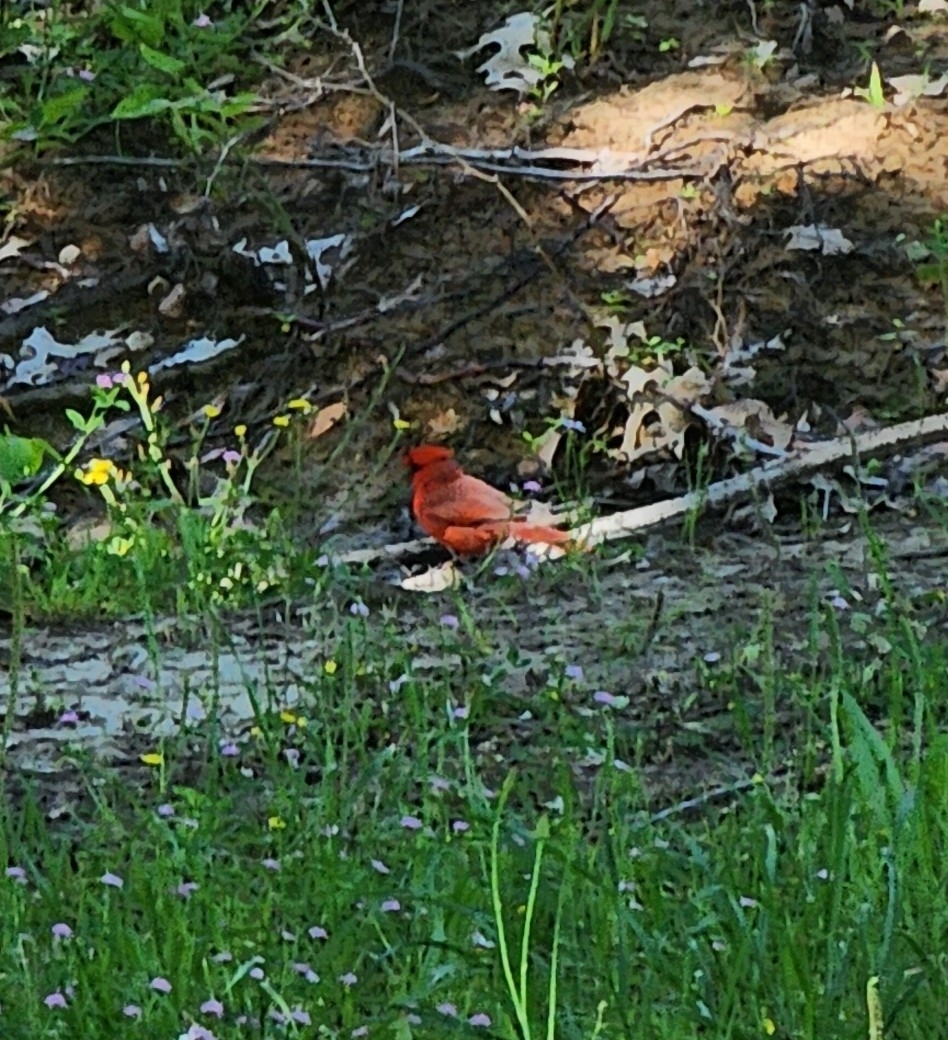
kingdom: Animalia
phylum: Chordata
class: Aves
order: Passeriformes
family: Cardinalidae
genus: Cardinalis
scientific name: Cardinalis cardinalis
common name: Northern cardinal
